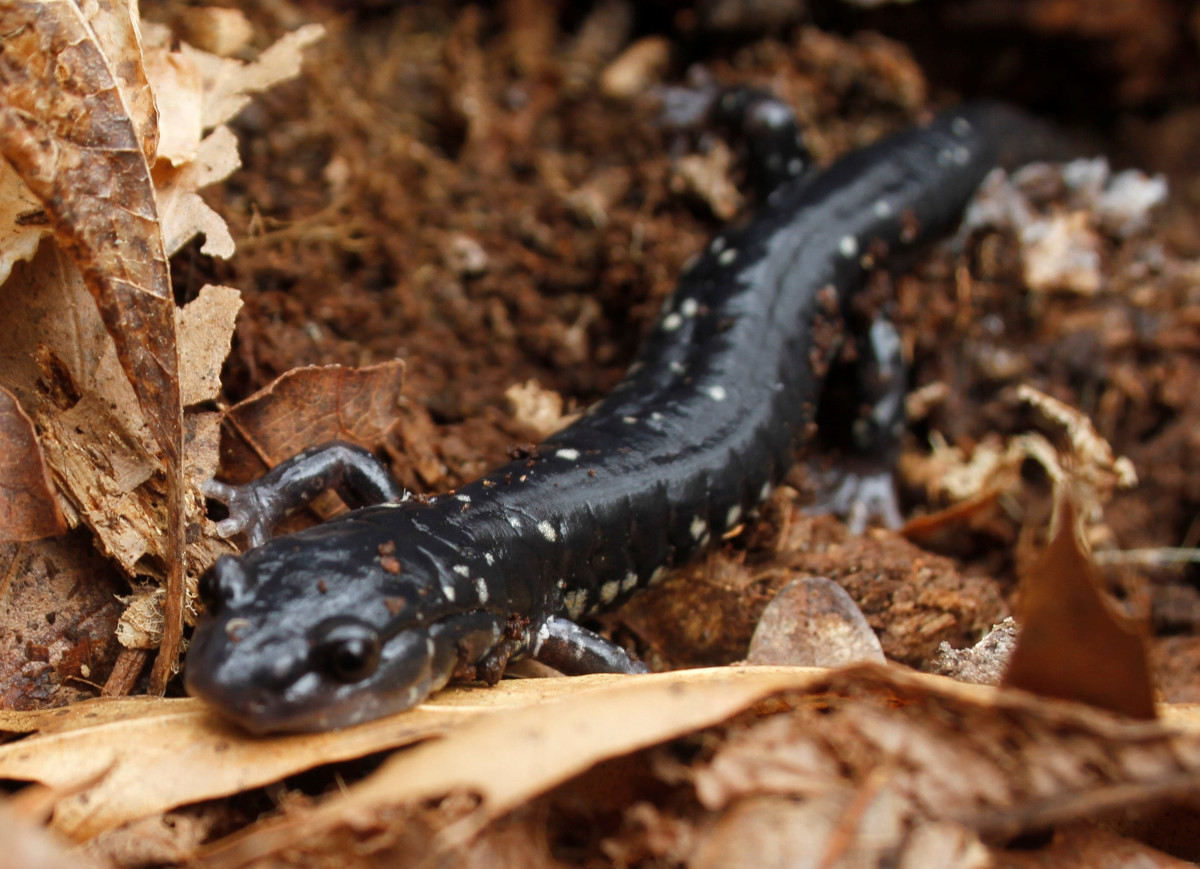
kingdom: Animalia
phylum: Chordata
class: Amphibia
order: Caudata
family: Plethodontidae
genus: Plethodon
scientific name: Plethodon cylindraceus
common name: White-spotted slimy salamander
